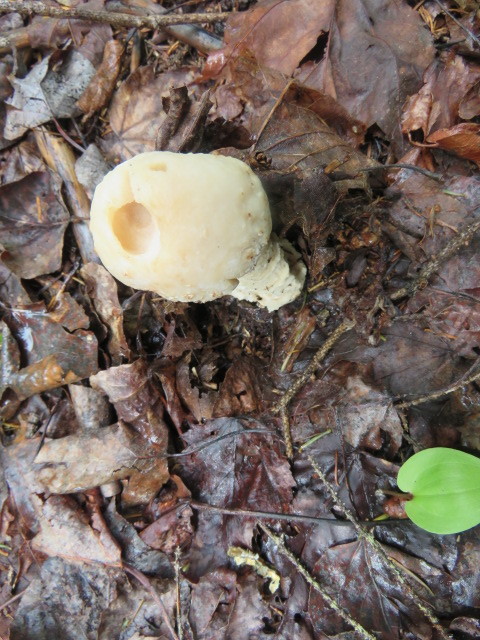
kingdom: Fungi
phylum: Ascomycota
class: Sordariomycetes
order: Hypocreales
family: Hypocreaceae
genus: Hypomyces
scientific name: Hypomyces hyalinus
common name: Amanita mold
